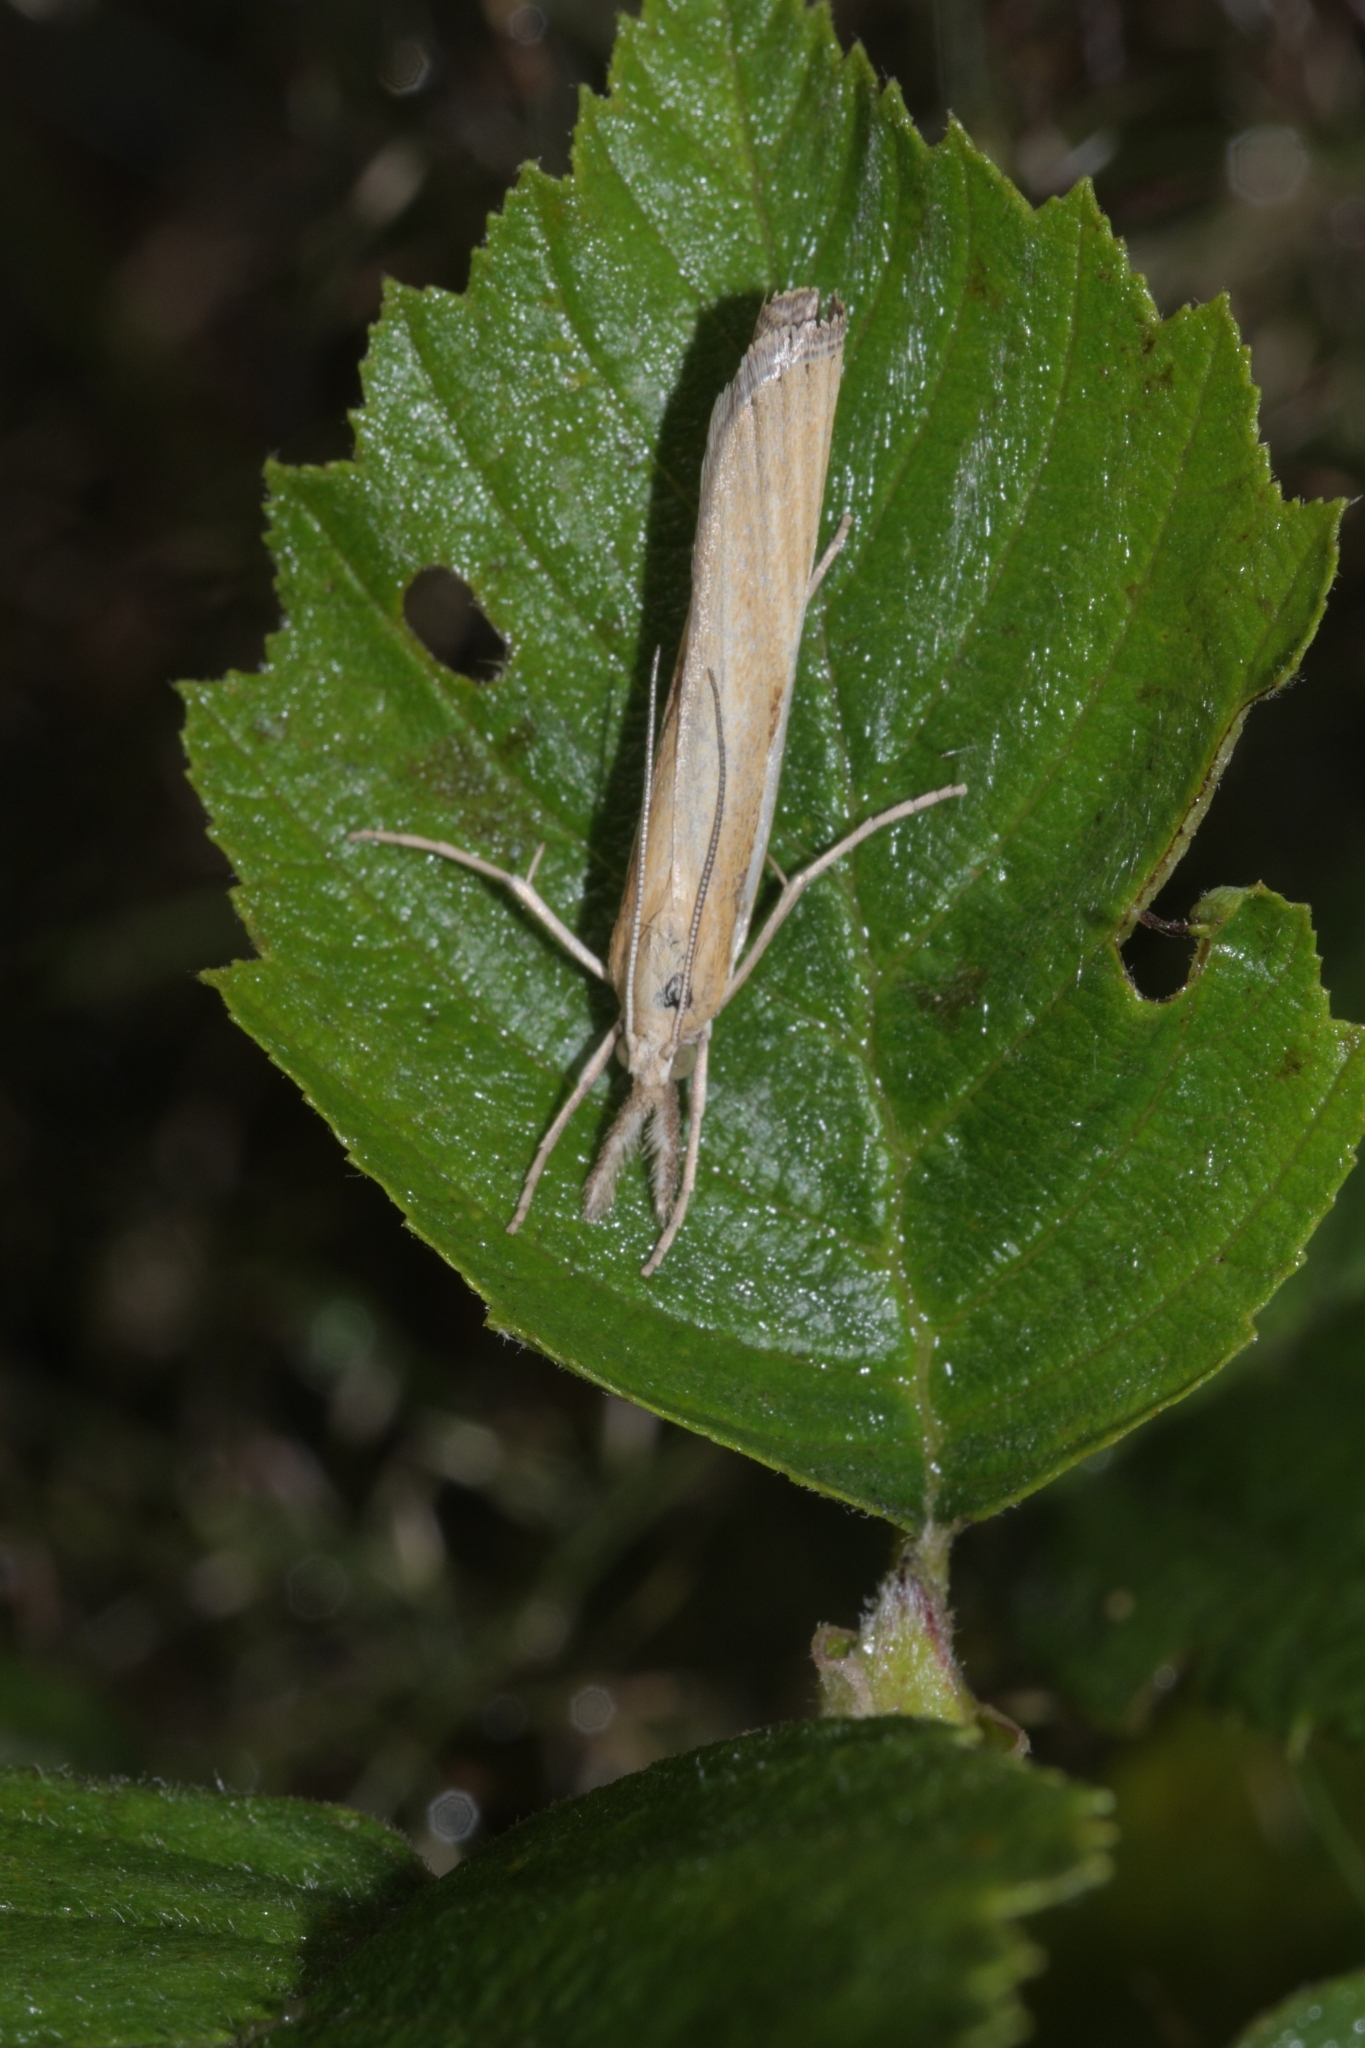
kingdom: Animalia
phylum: Arthropoda
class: Insecta
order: Lepidoptera
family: Crambidae
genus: Agriphila
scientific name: Agriphila tristellus
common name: Common grass-veneer
